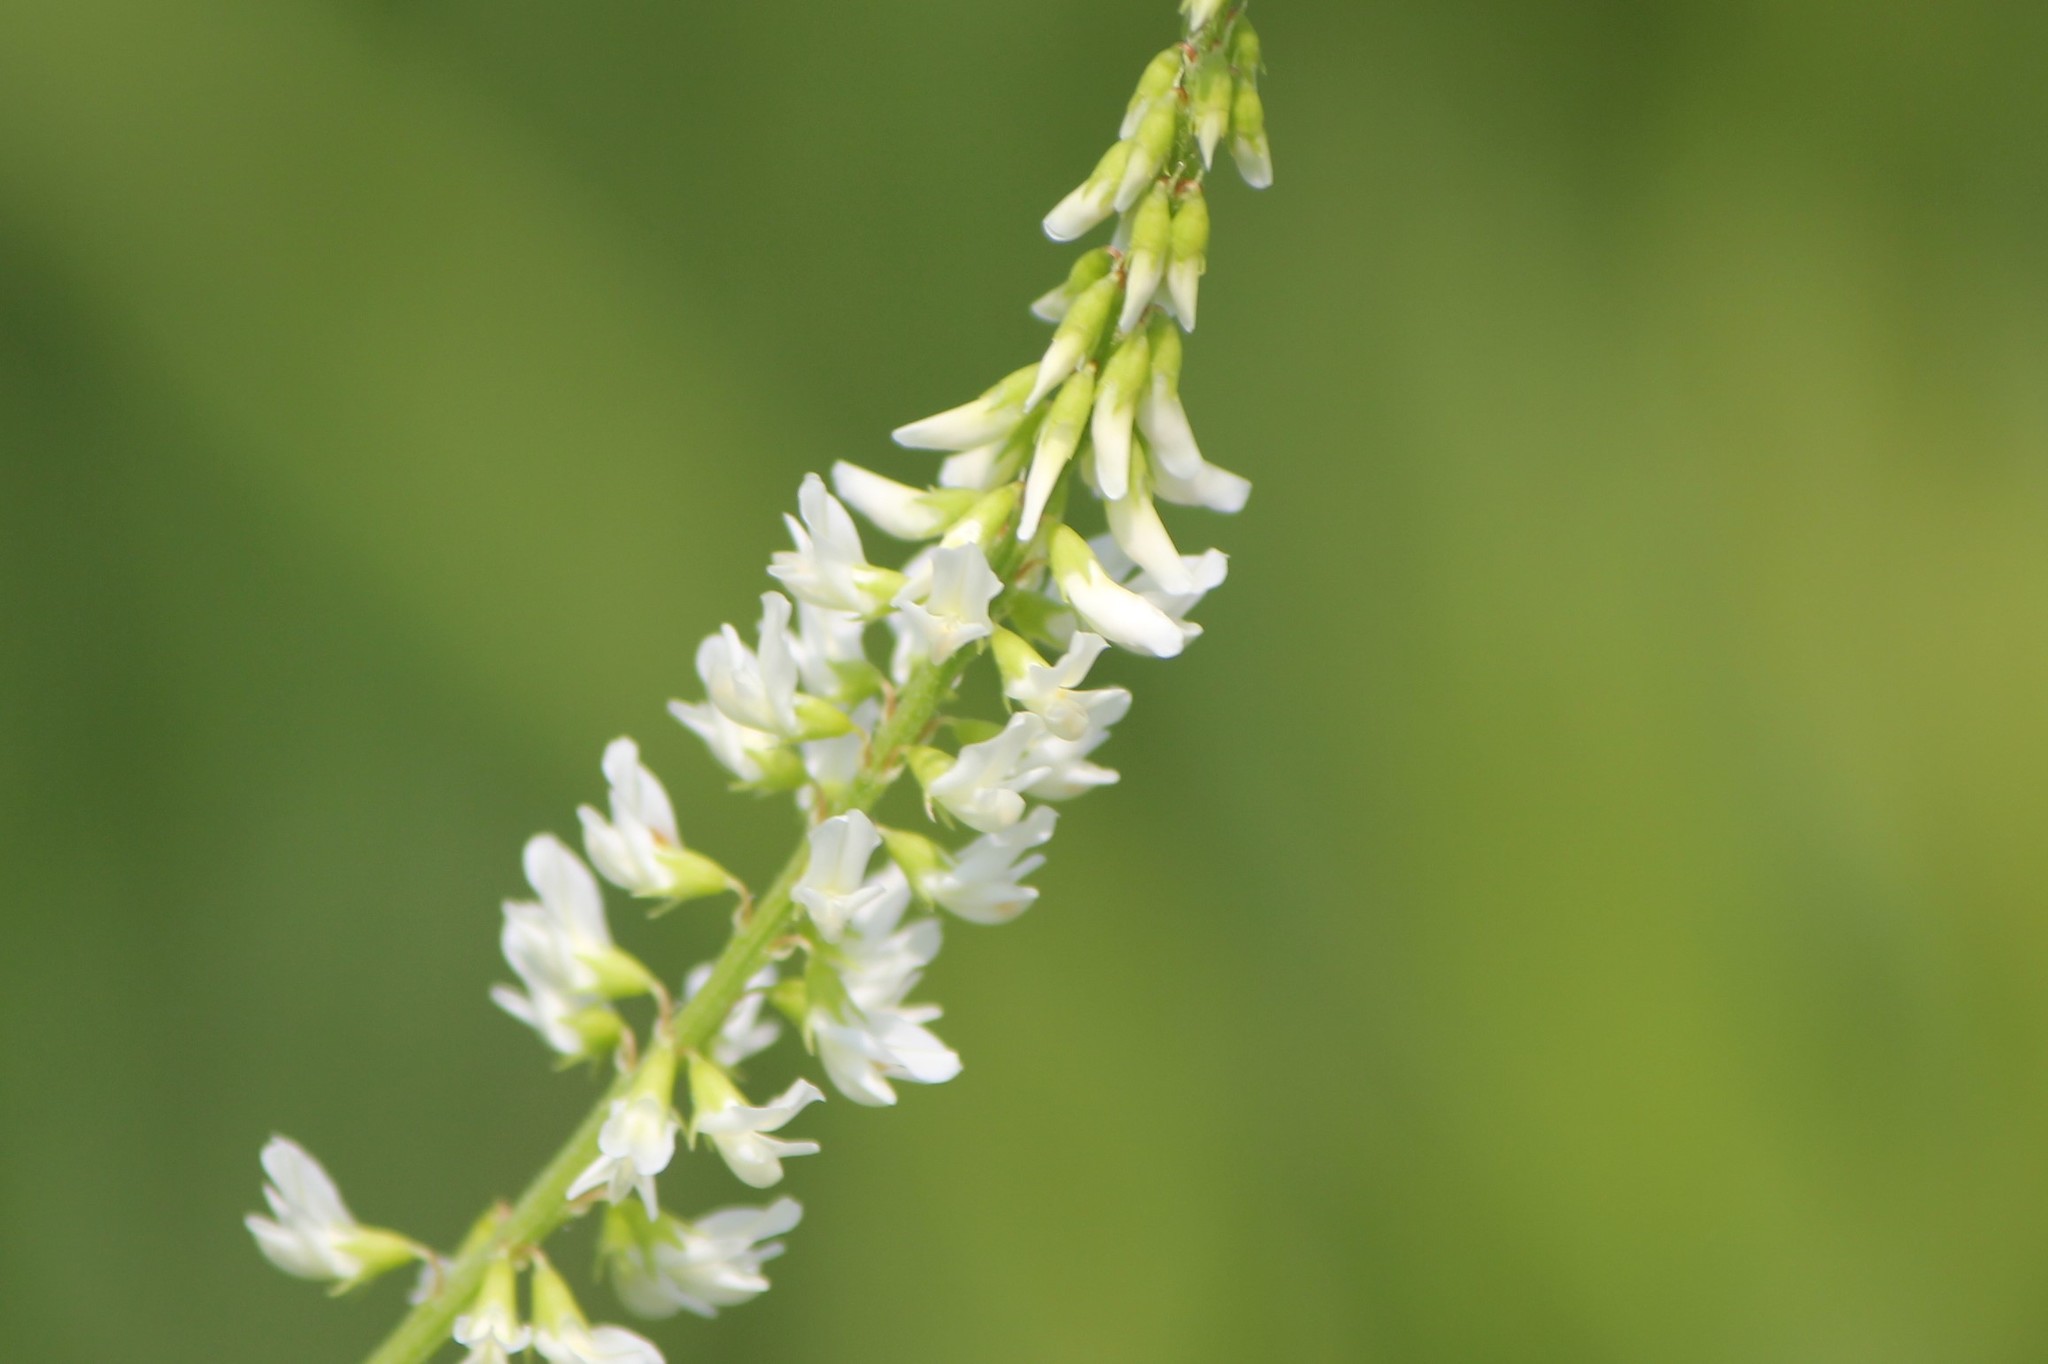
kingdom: Plantae
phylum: Tracheophyta
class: Magnoliopsida
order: Fabales
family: Fabaceae
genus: Melilotus
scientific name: Melilotus albus
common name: White melilot
